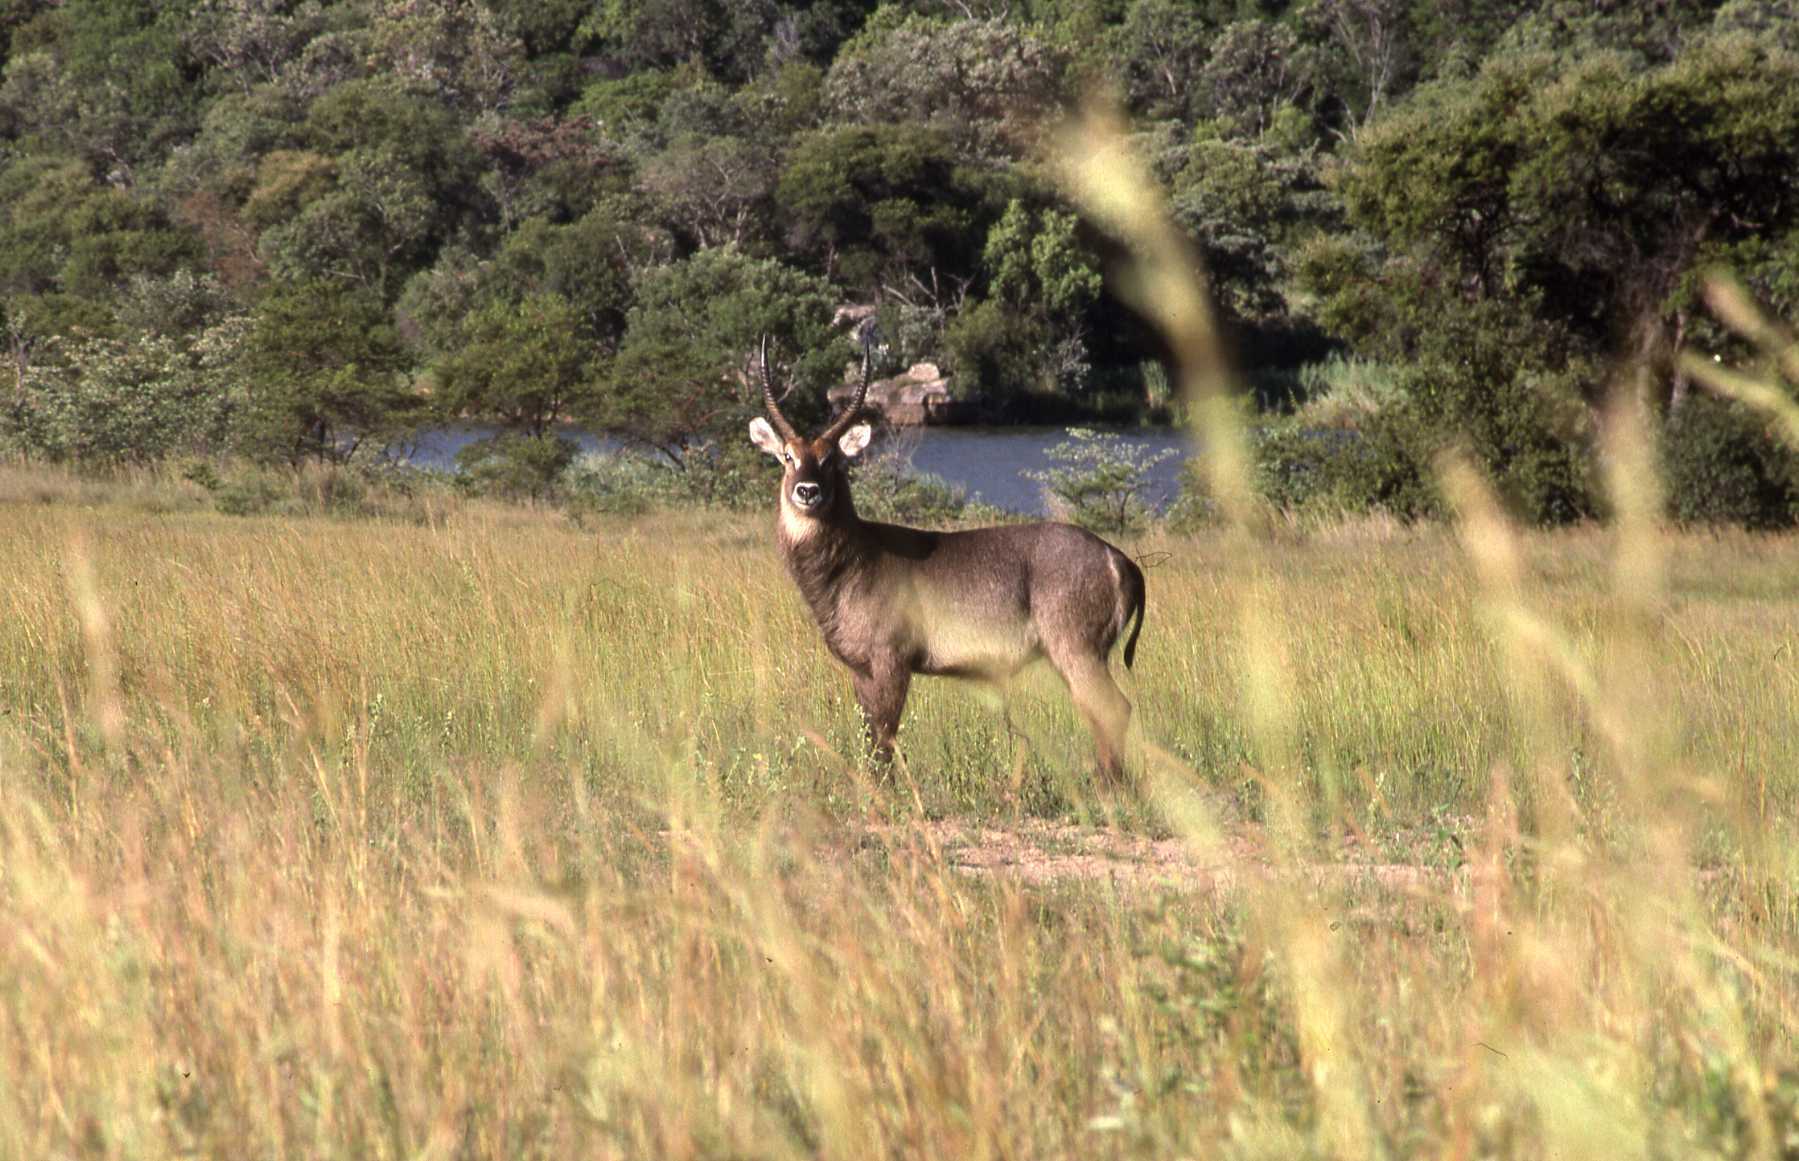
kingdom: Animalia
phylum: Chordata
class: Mammalia
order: Artiodactyla
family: Bovidae
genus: Kobus
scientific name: Kobus ellipsiprymnus
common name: Waterbuck
